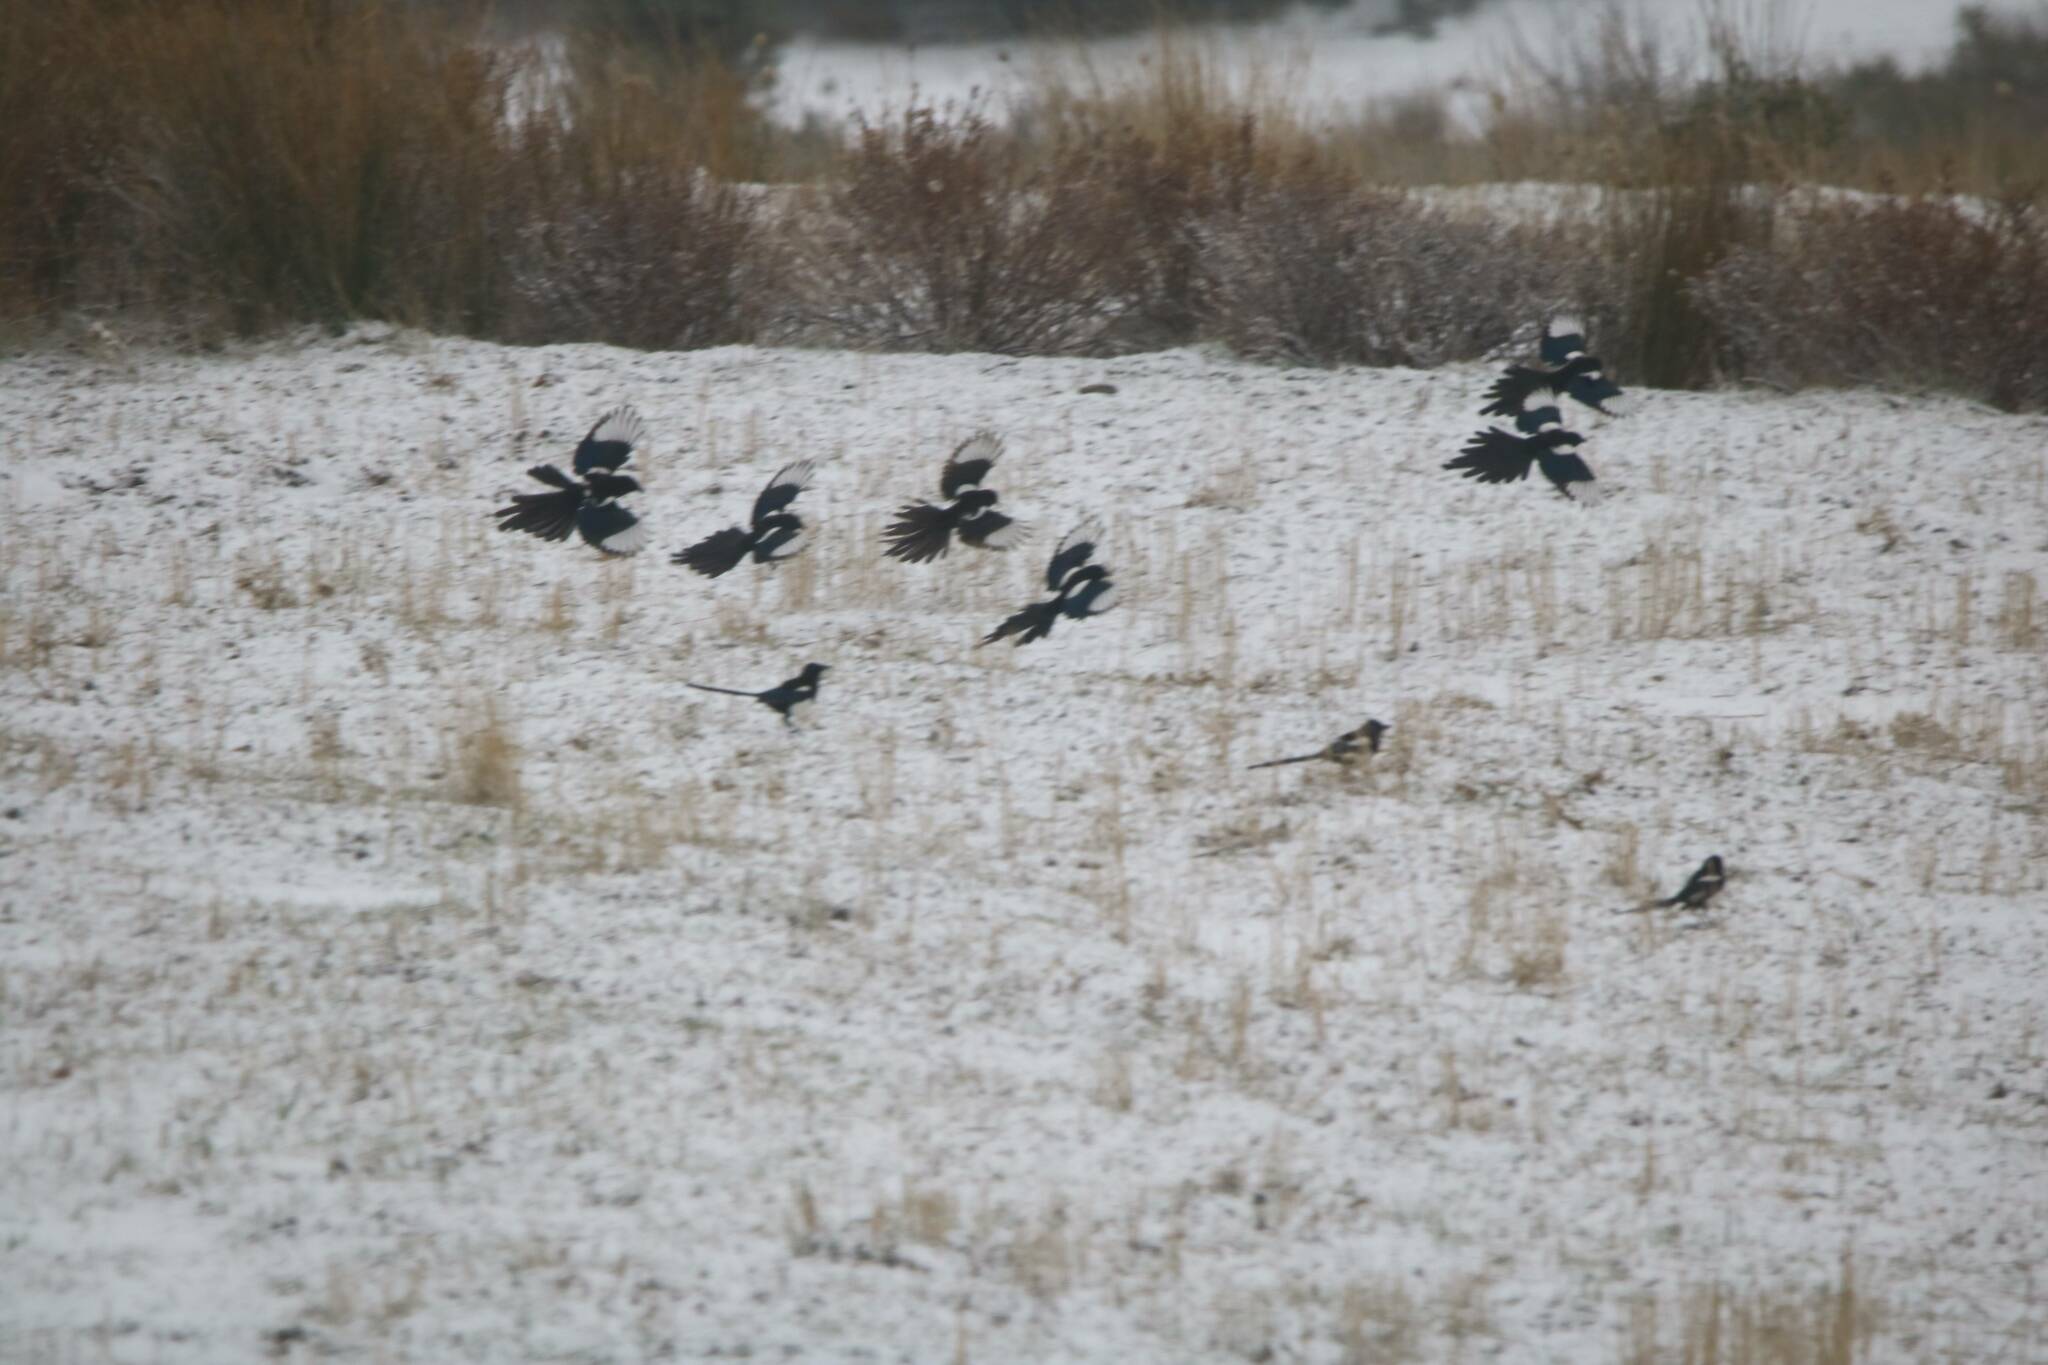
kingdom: Animalia
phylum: Chordata
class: Aves
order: Passeriformes
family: Corvidae
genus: Pica
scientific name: Pica mauritanica
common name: Maghreb magpie
